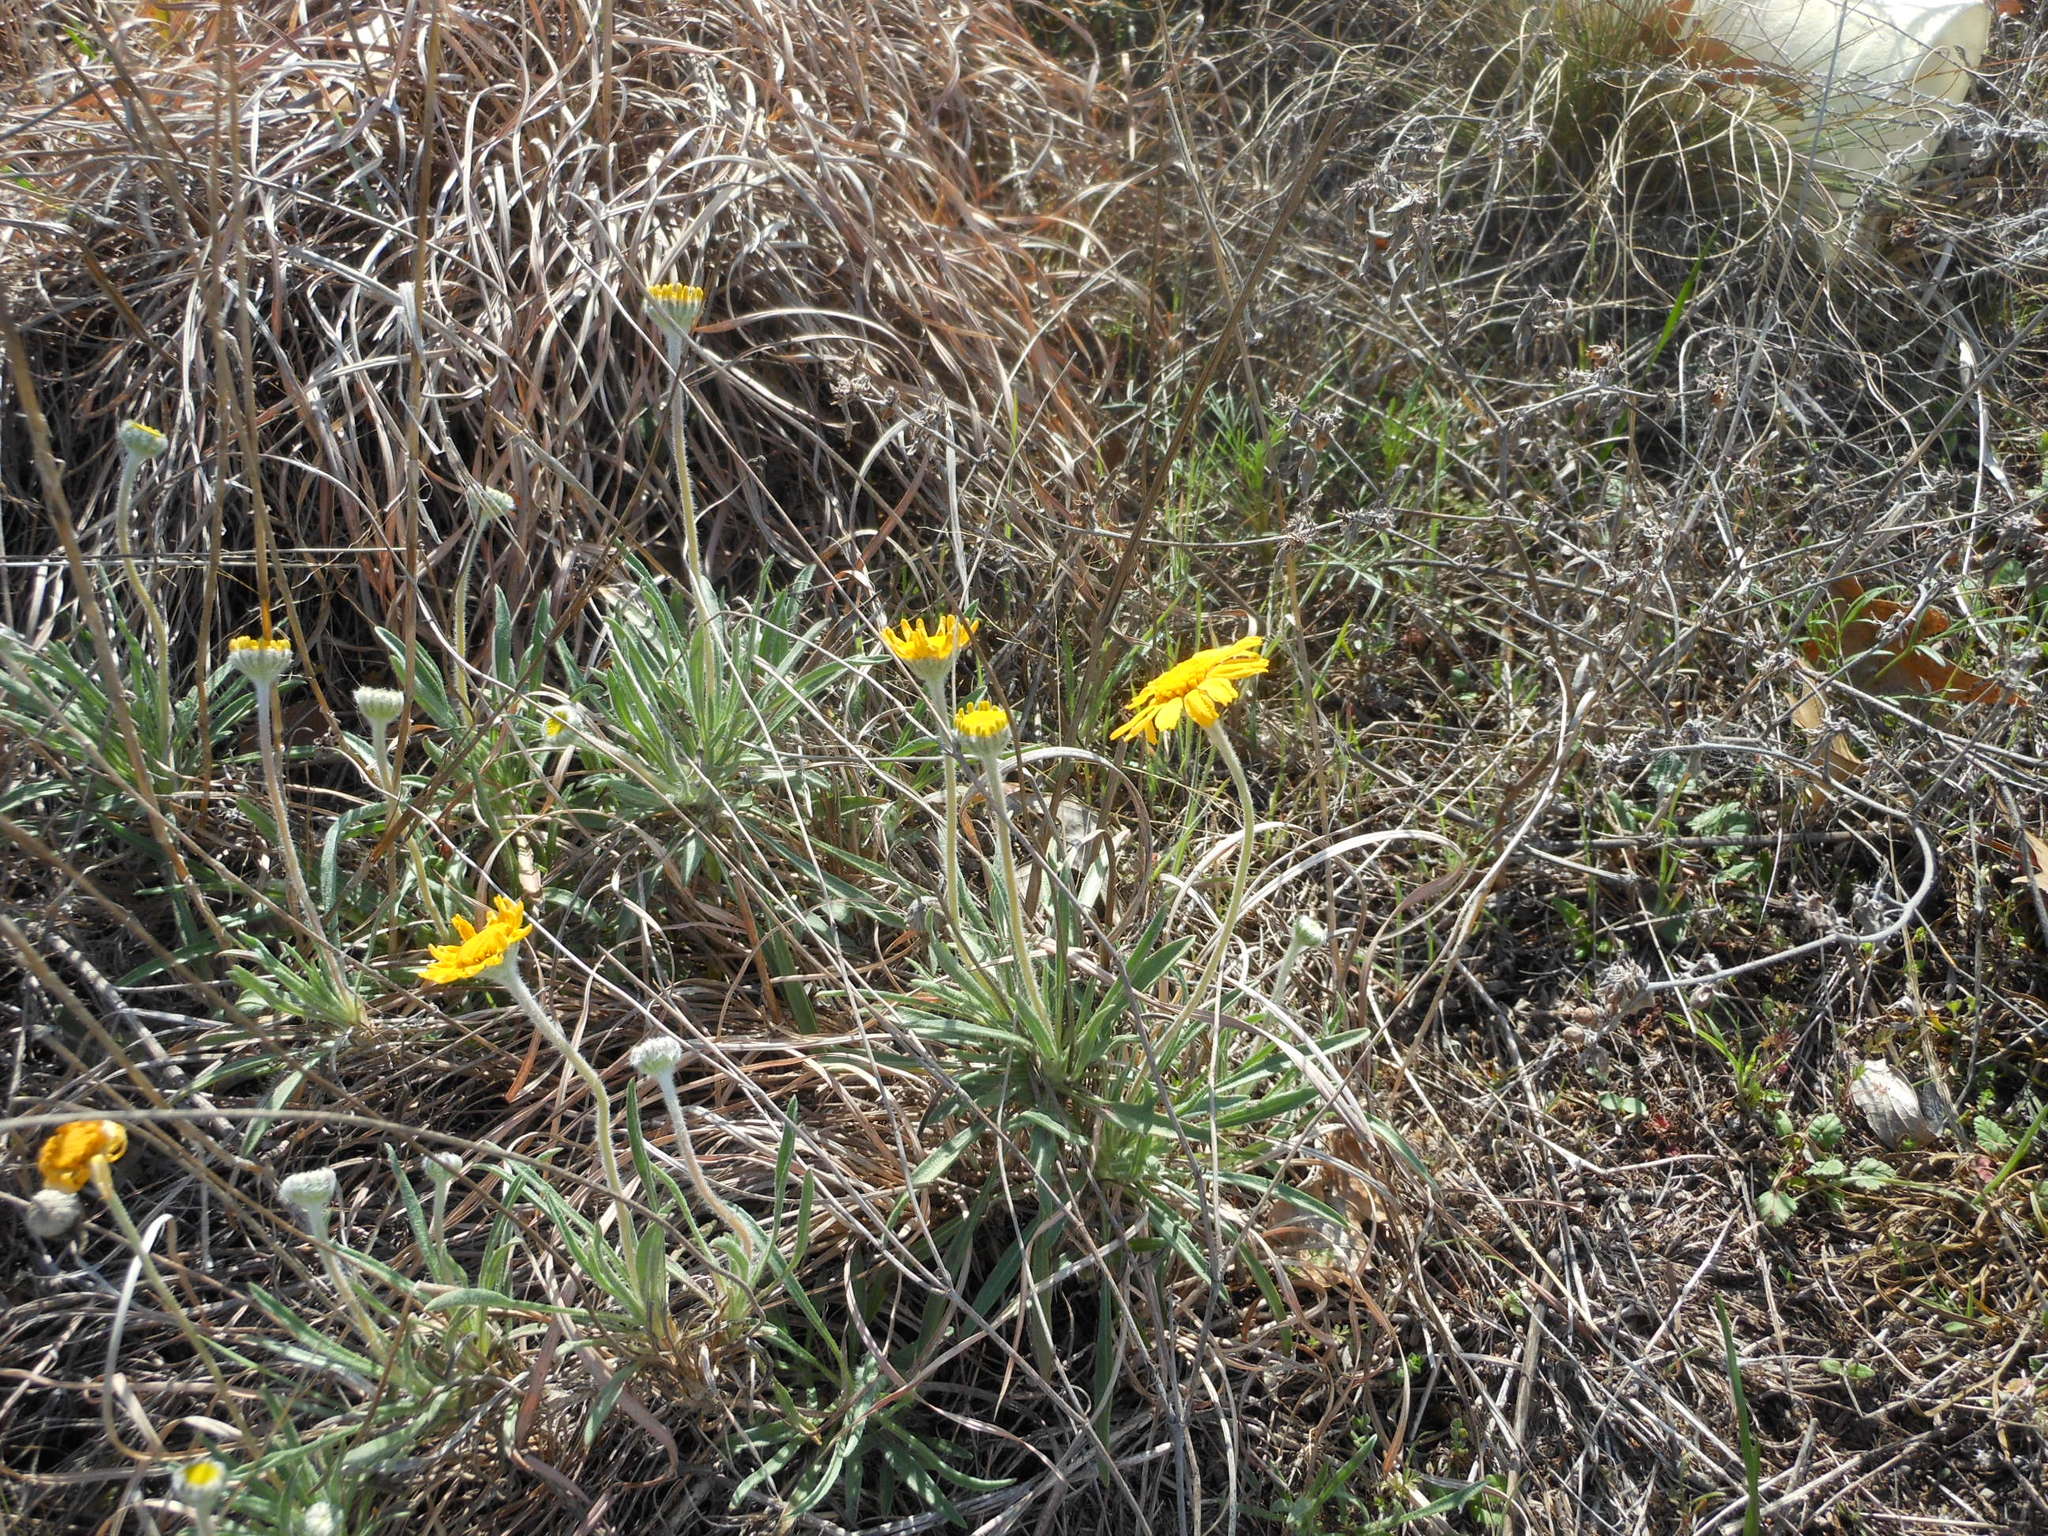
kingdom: Plantae
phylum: Tracheophyta
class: Magnoliopsida
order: Asterales
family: Asteraceae
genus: Tetraneuris
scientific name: Tetraneuris scaposa
